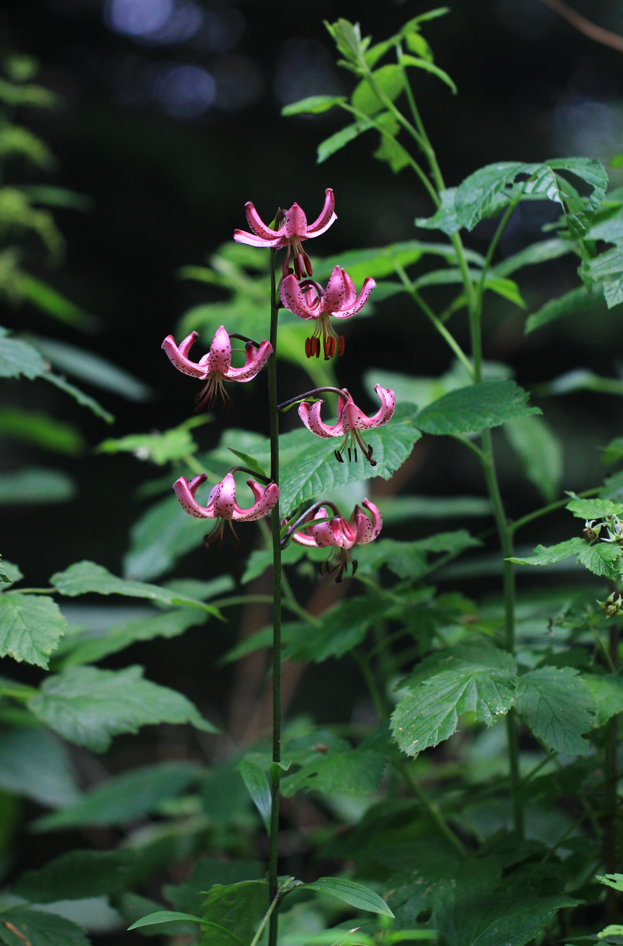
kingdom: Plantae
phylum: Tracheophyta
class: Liliopsida
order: Liliales
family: Liliaceae
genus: Lilium
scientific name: Lilium martagon
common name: Martagon lily
